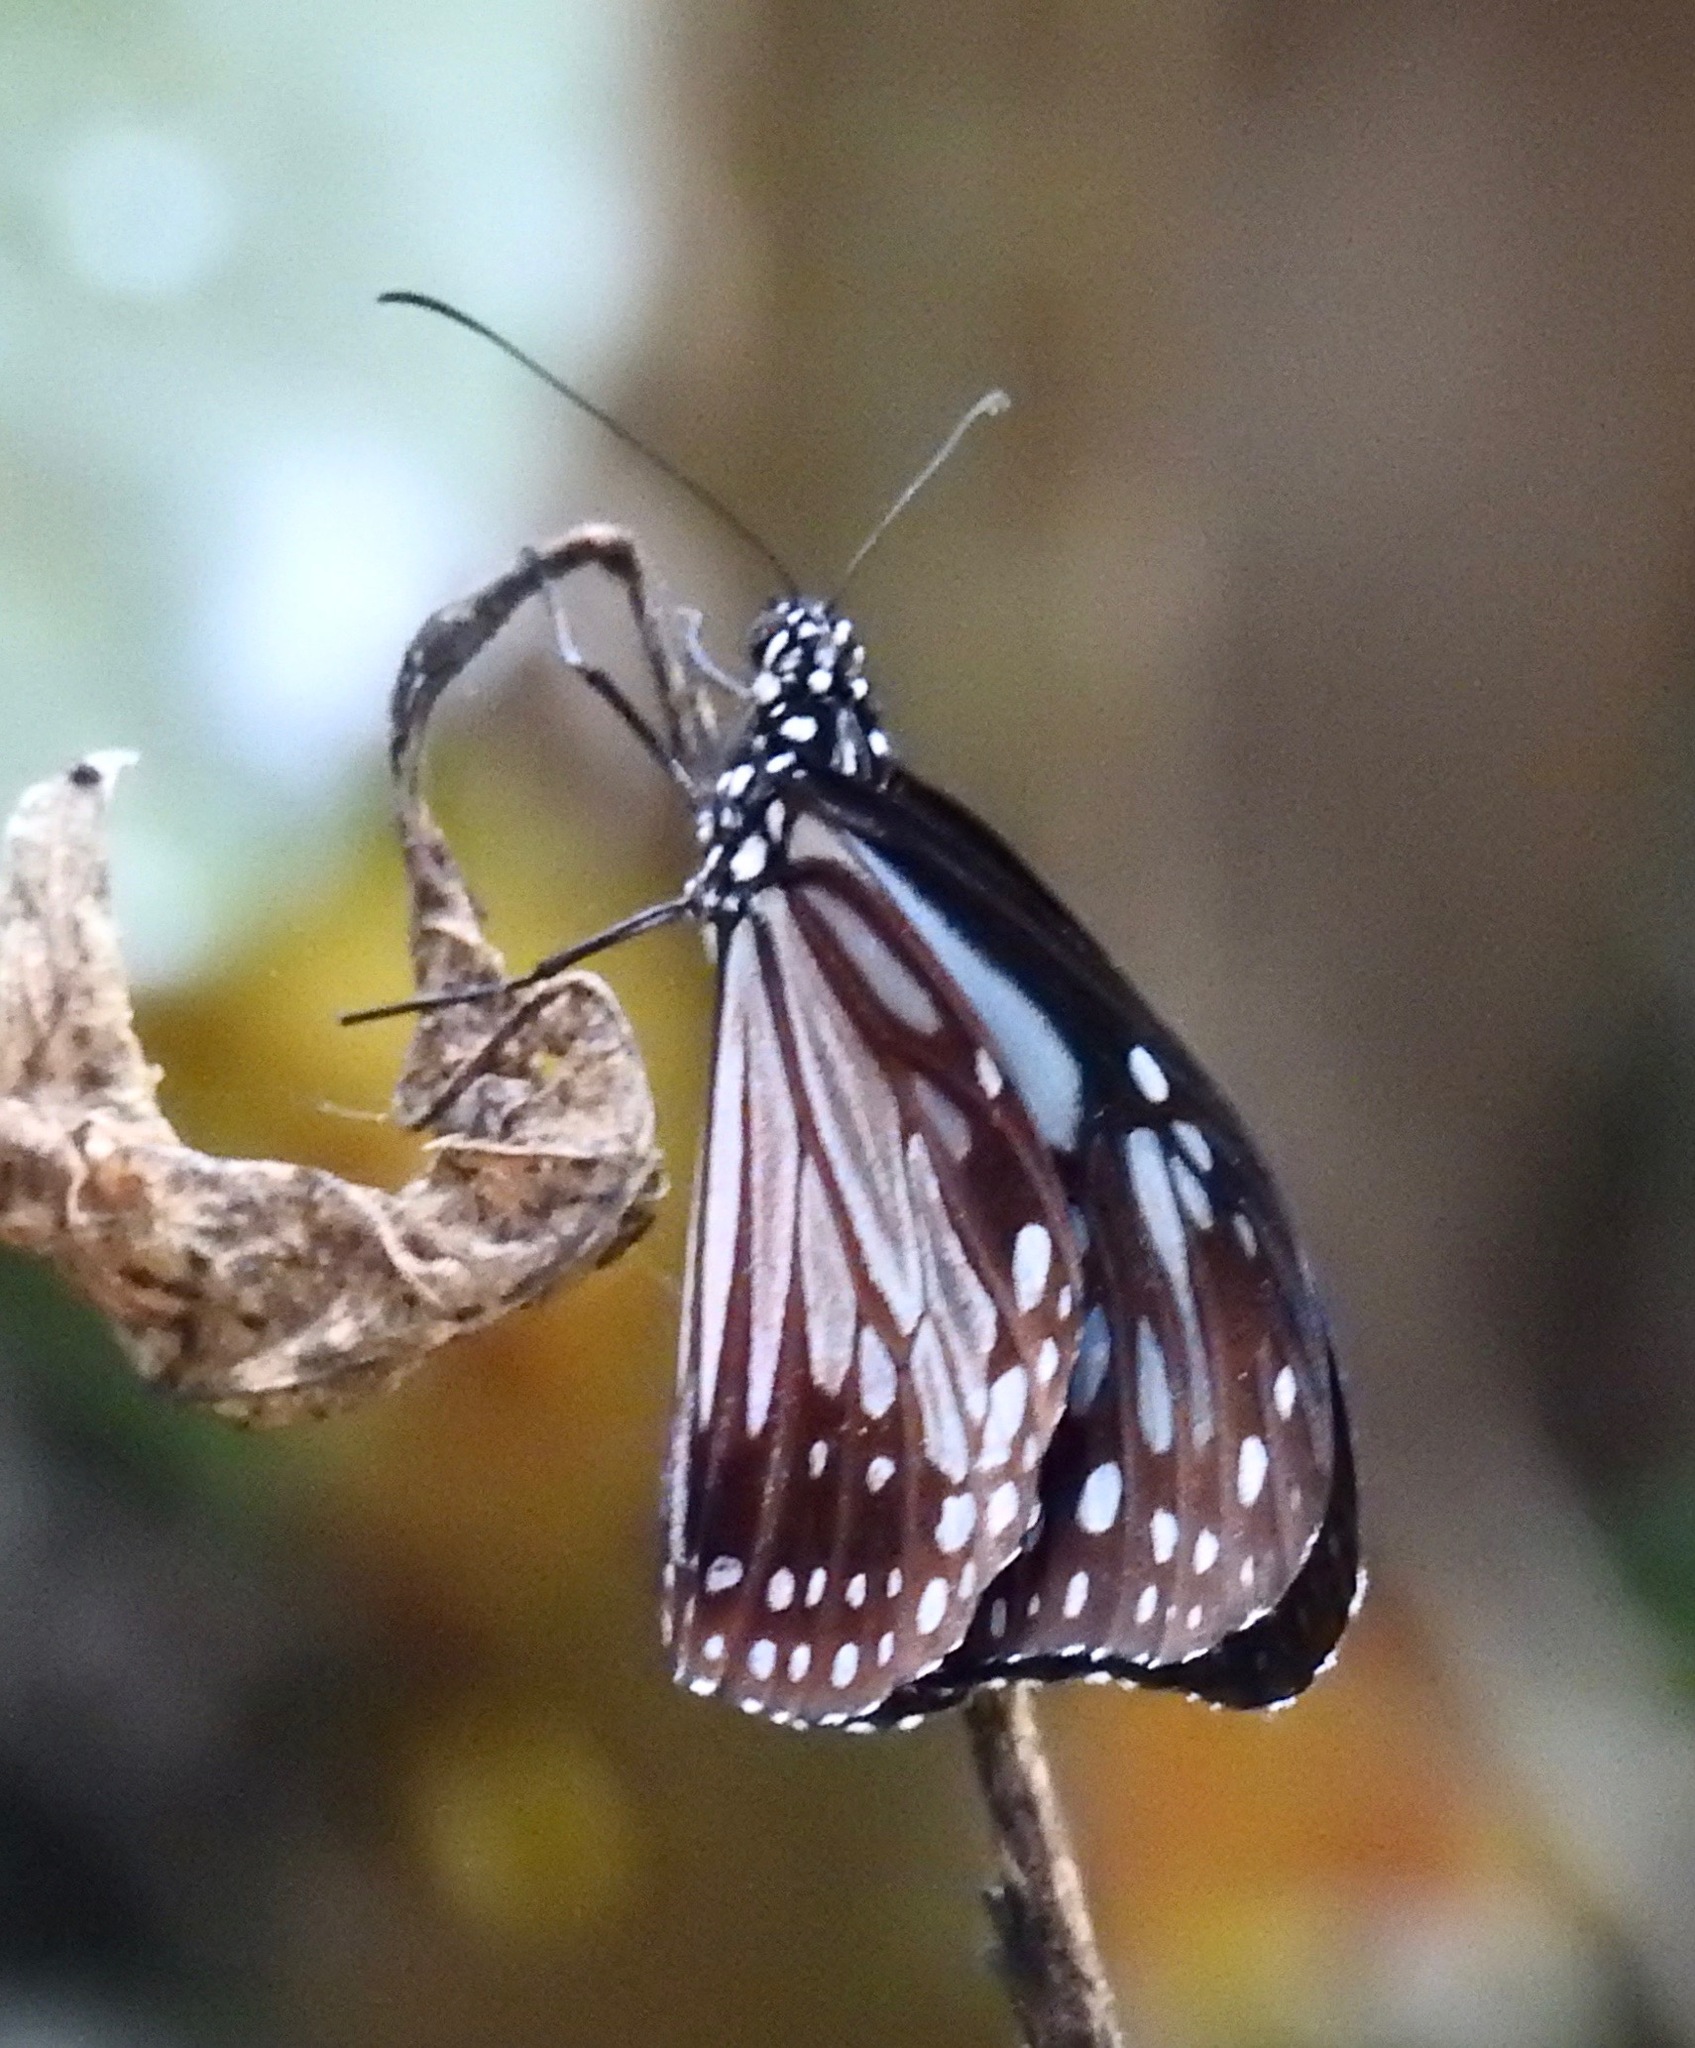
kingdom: Animalia
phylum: Arthropoda
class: Insecta
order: Lepidoptera
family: Nymphalidae
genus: Parantica
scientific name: Parantica melaneus
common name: Chocolate tiger
